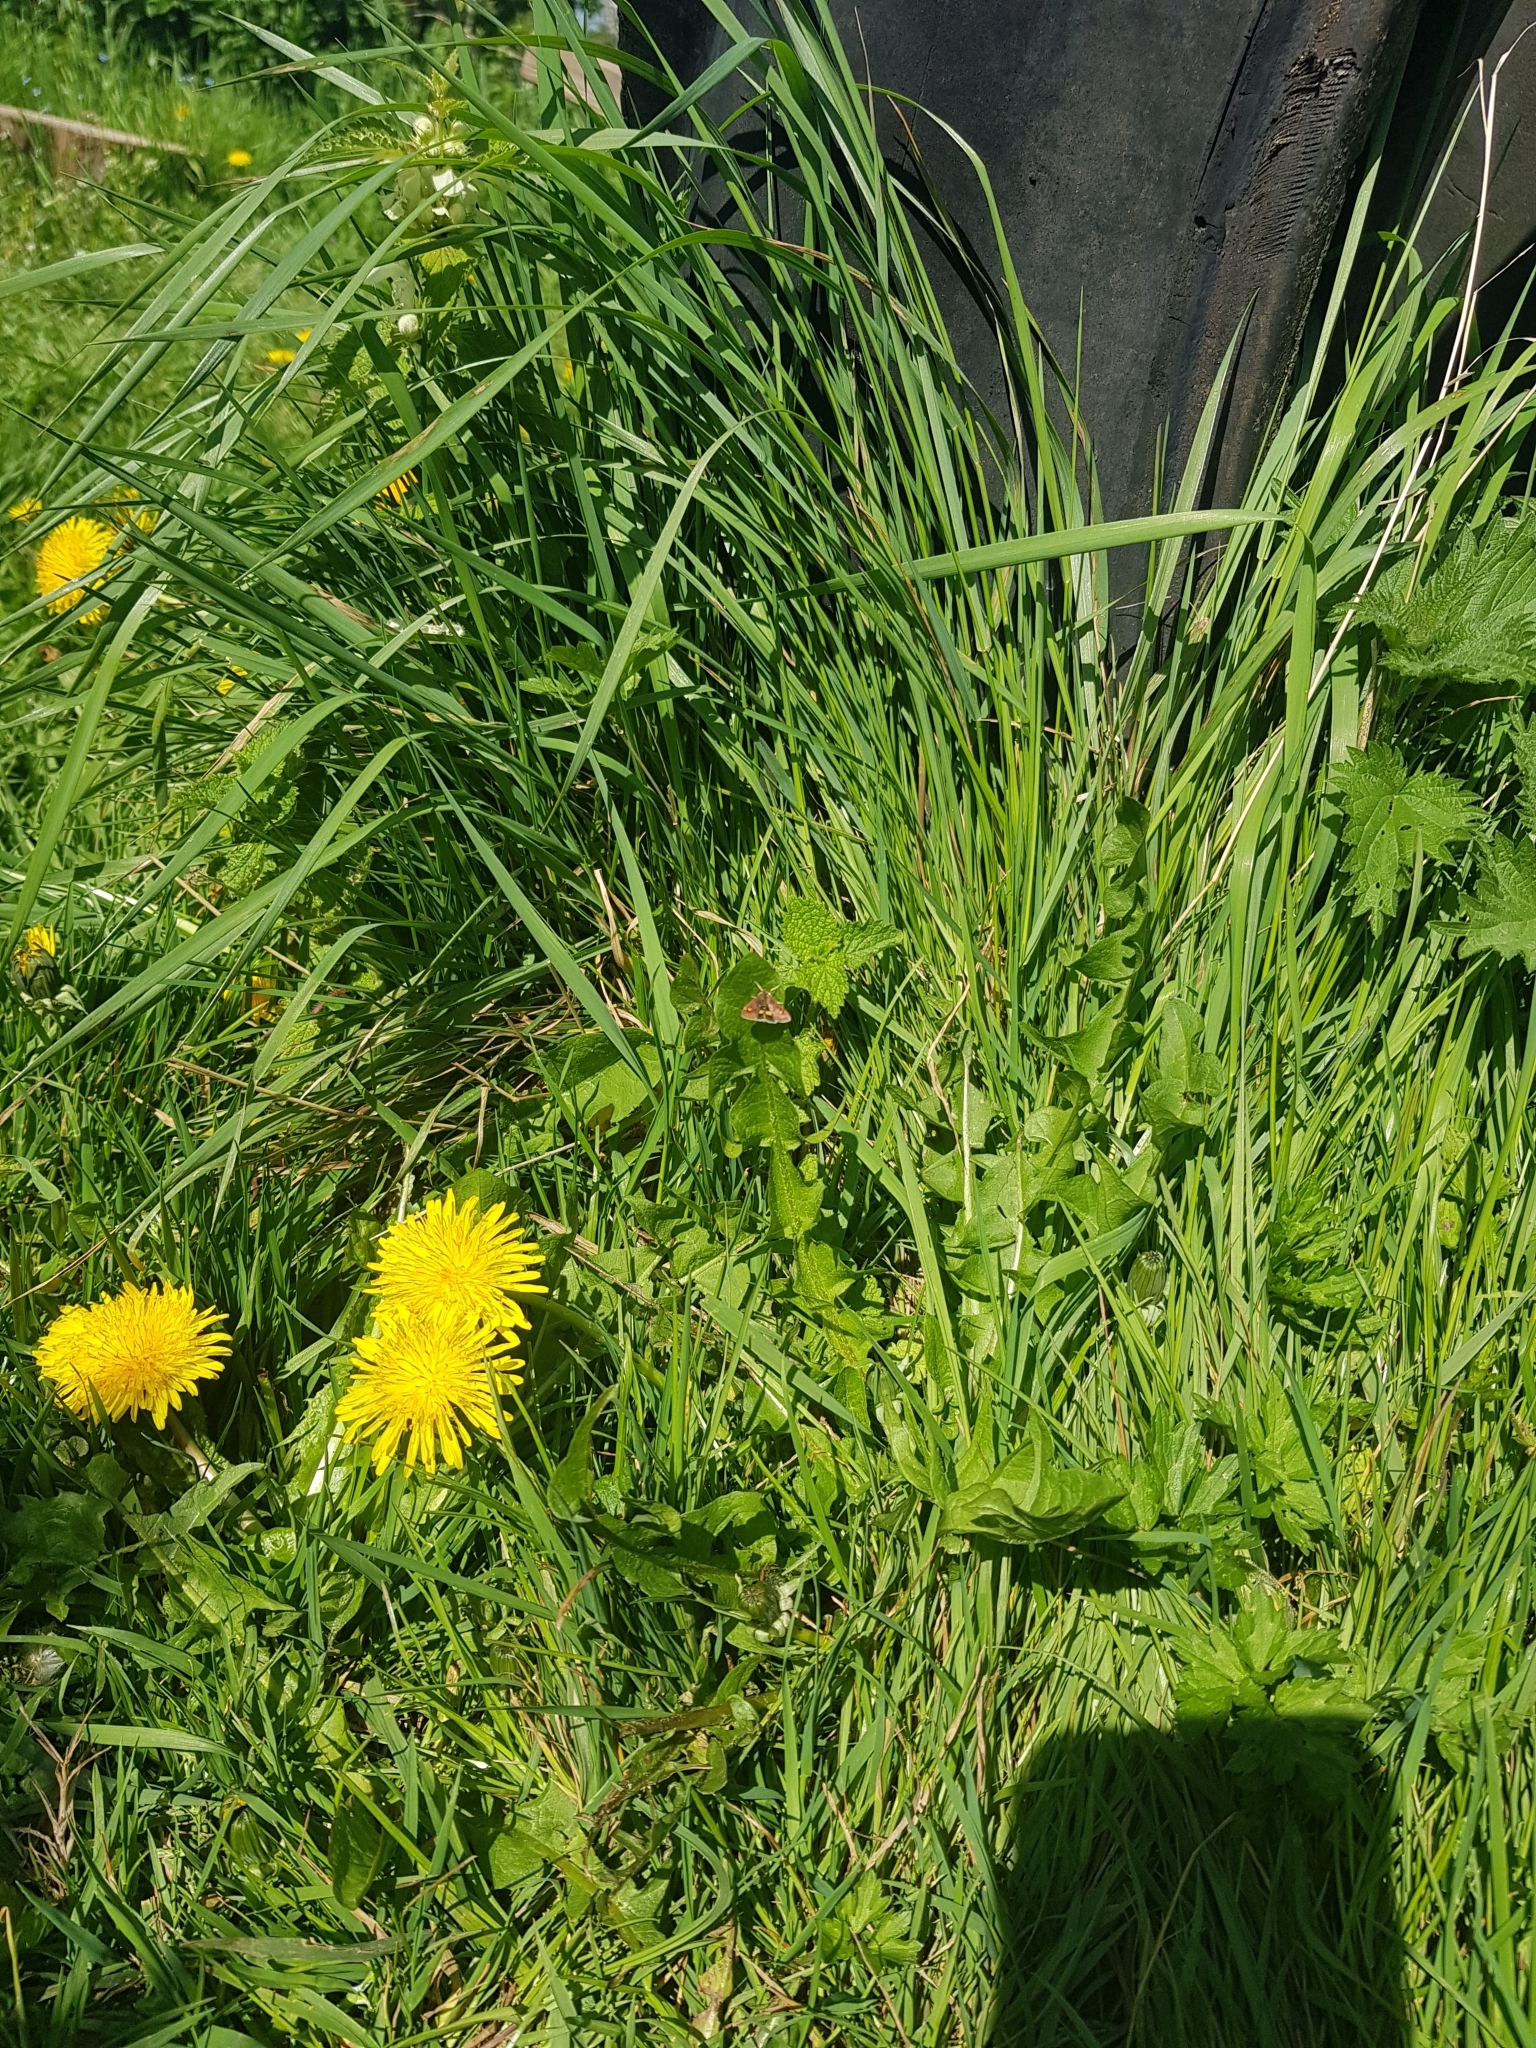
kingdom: Animalia
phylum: Arthropoda
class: Insecta
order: Lepidoptera
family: Crambidae
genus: Pyrausta
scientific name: Pyrausta aurata
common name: Small purple & gold
